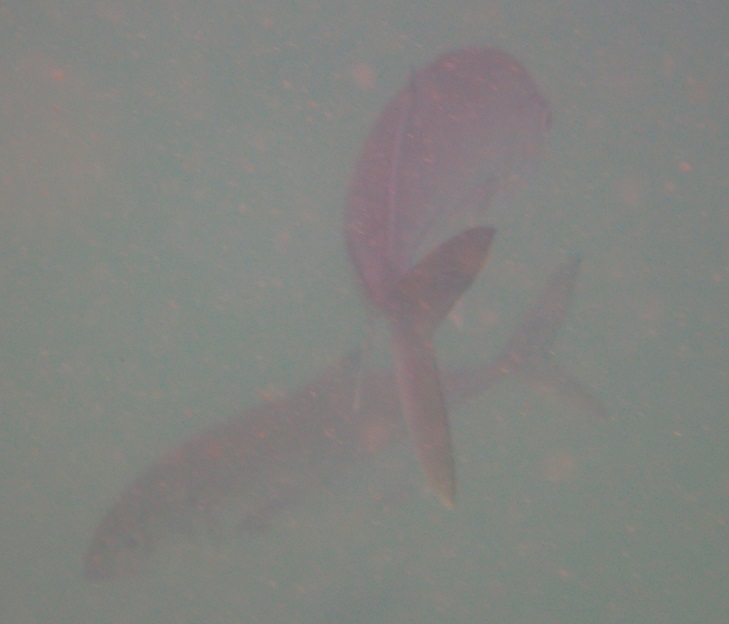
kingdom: Animalia
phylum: Chordata
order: Perciformes
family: Carangidae
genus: Caranx
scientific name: Caranx sexfasciatus
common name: Bigeye trevally
